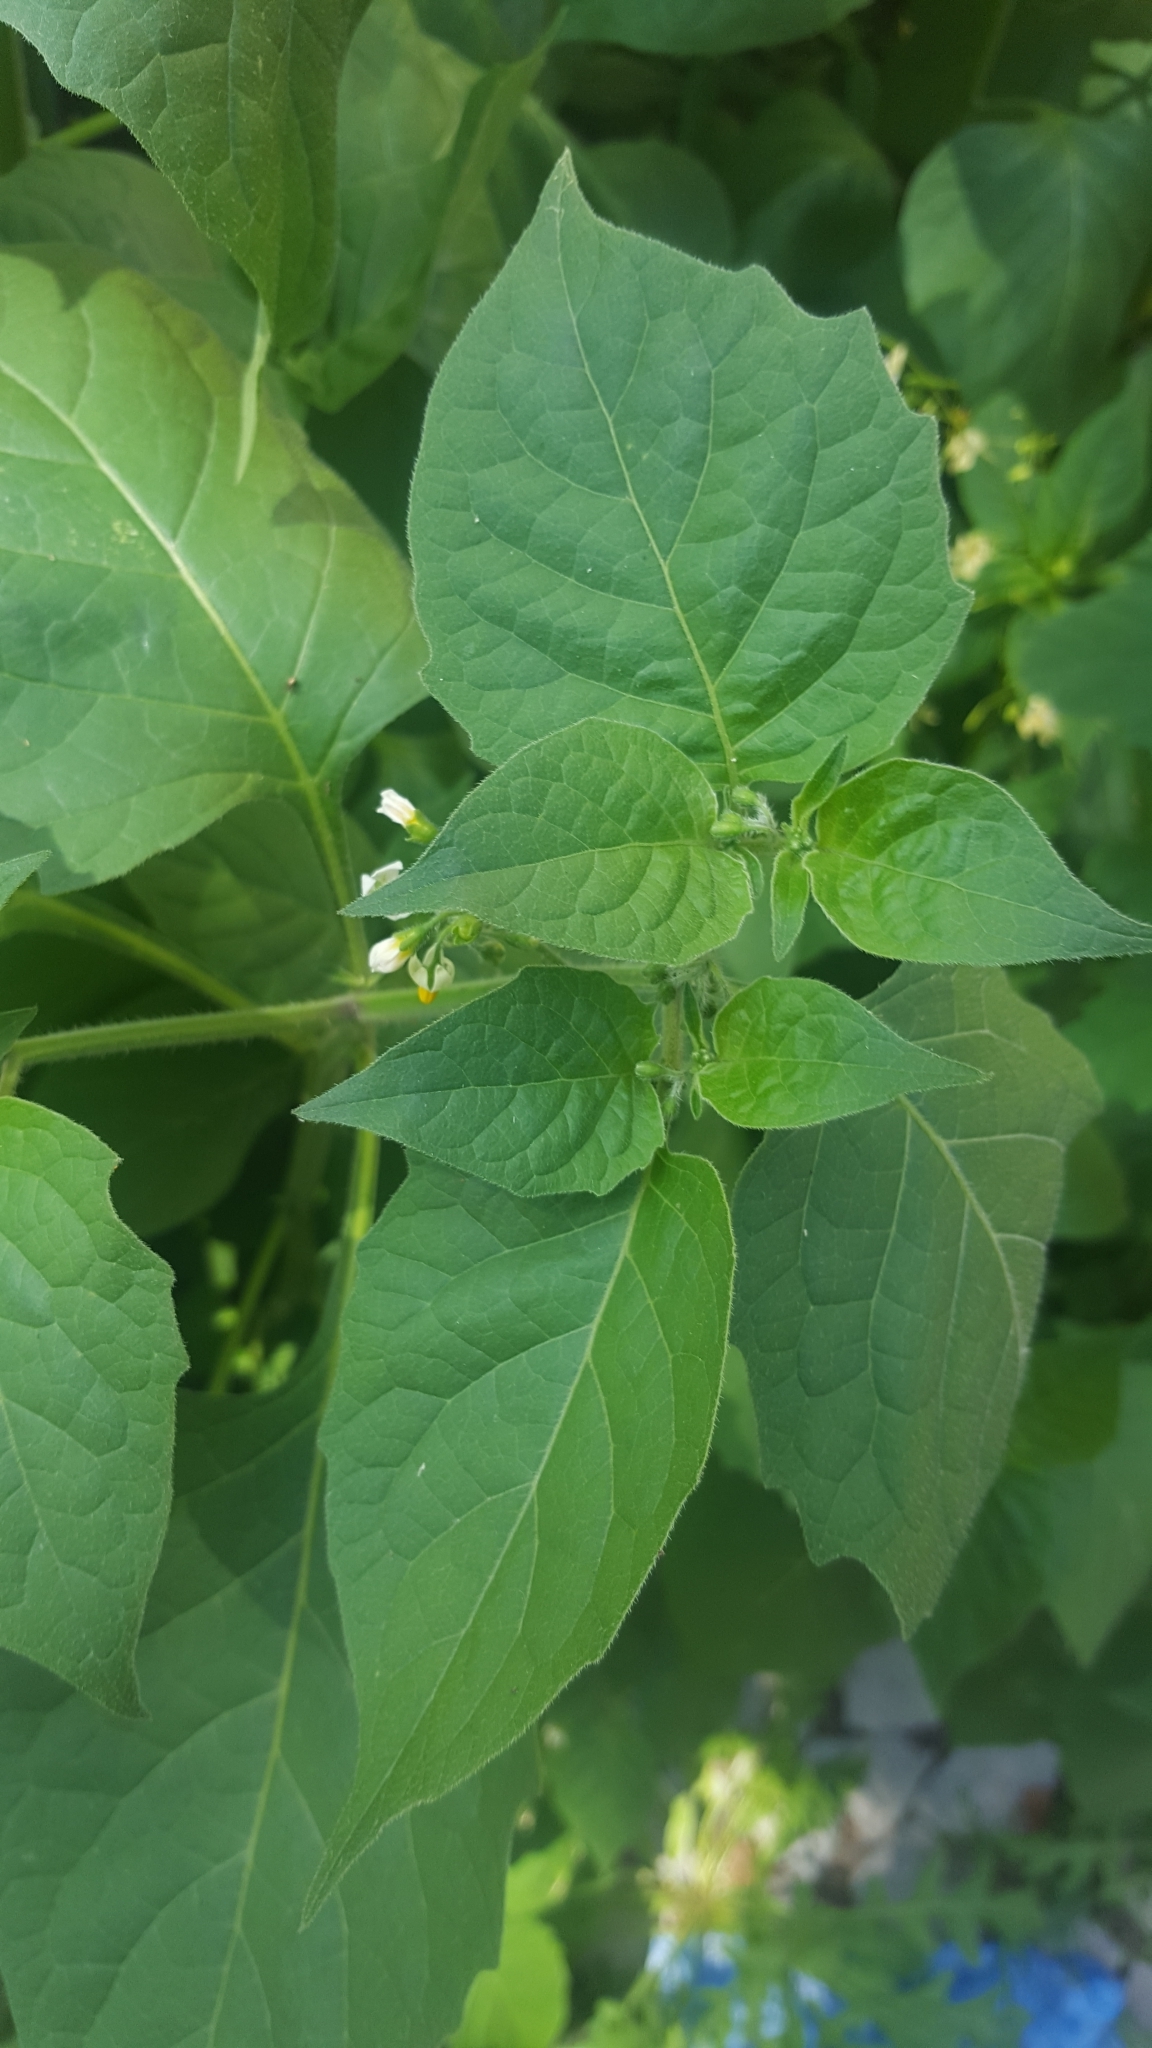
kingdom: Plantae
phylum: Tracheophyta
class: Magnoliopsida
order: Solanales
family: Solanaceae
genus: Solanum
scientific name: Solanum nigrum
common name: Black nightshade
